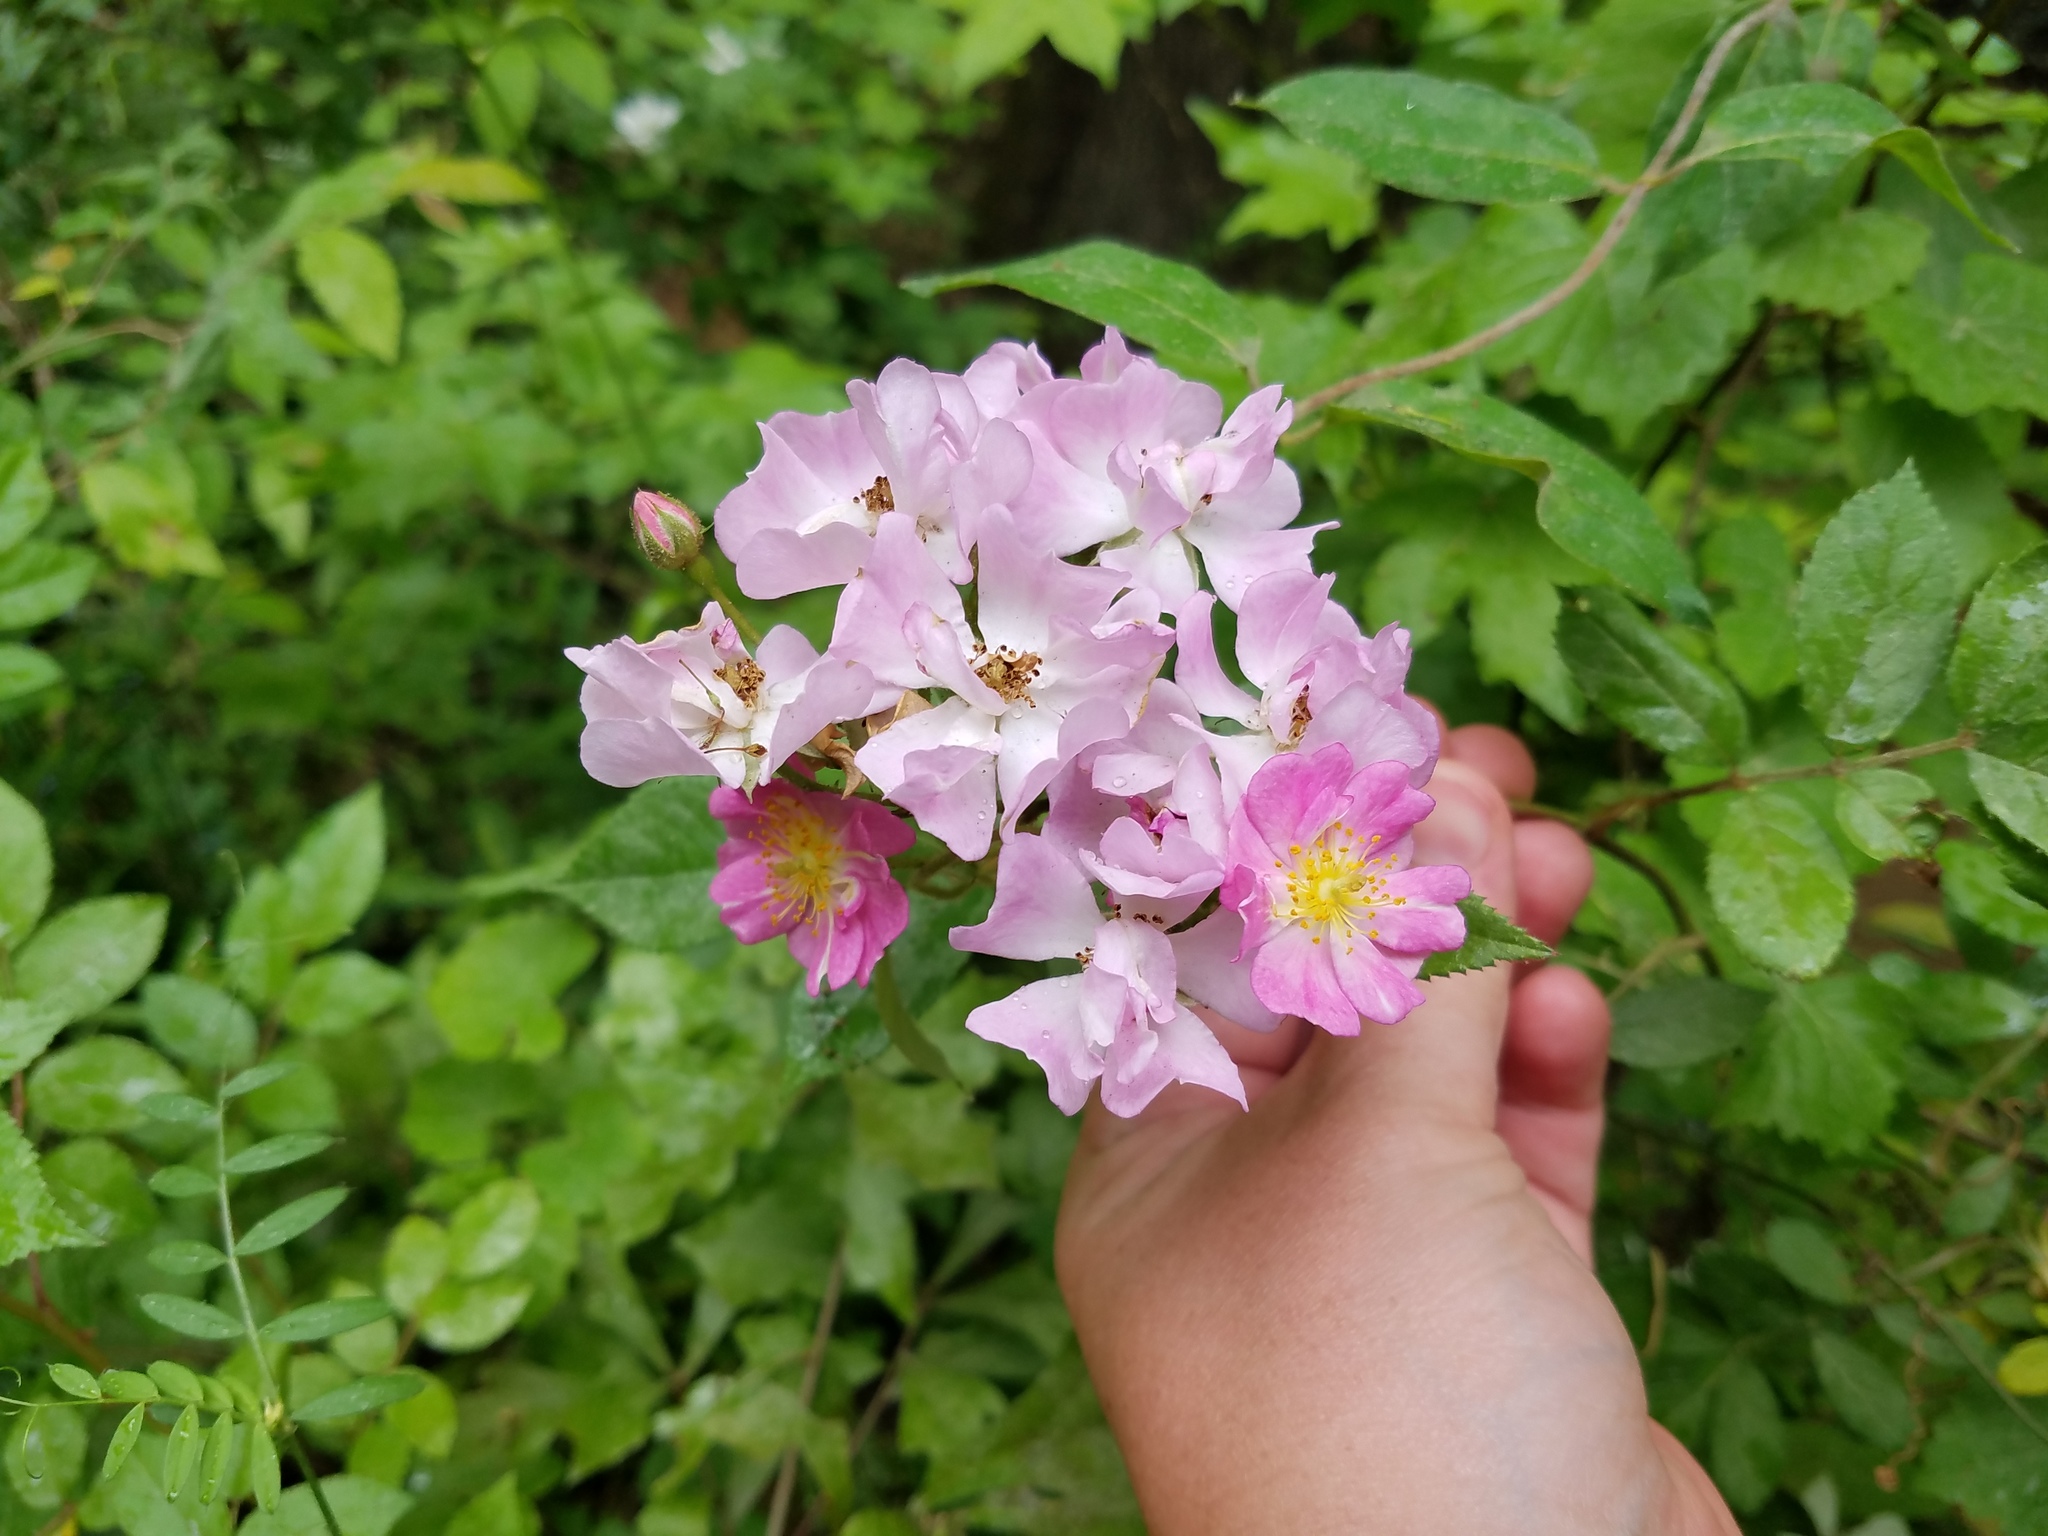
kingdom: Plantae
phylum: Tracheophyta
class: Magnoliopsida
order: Rosales
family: Rosaceae
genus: Rosa
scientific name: Rosa multiflora
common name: Multiflora rose
